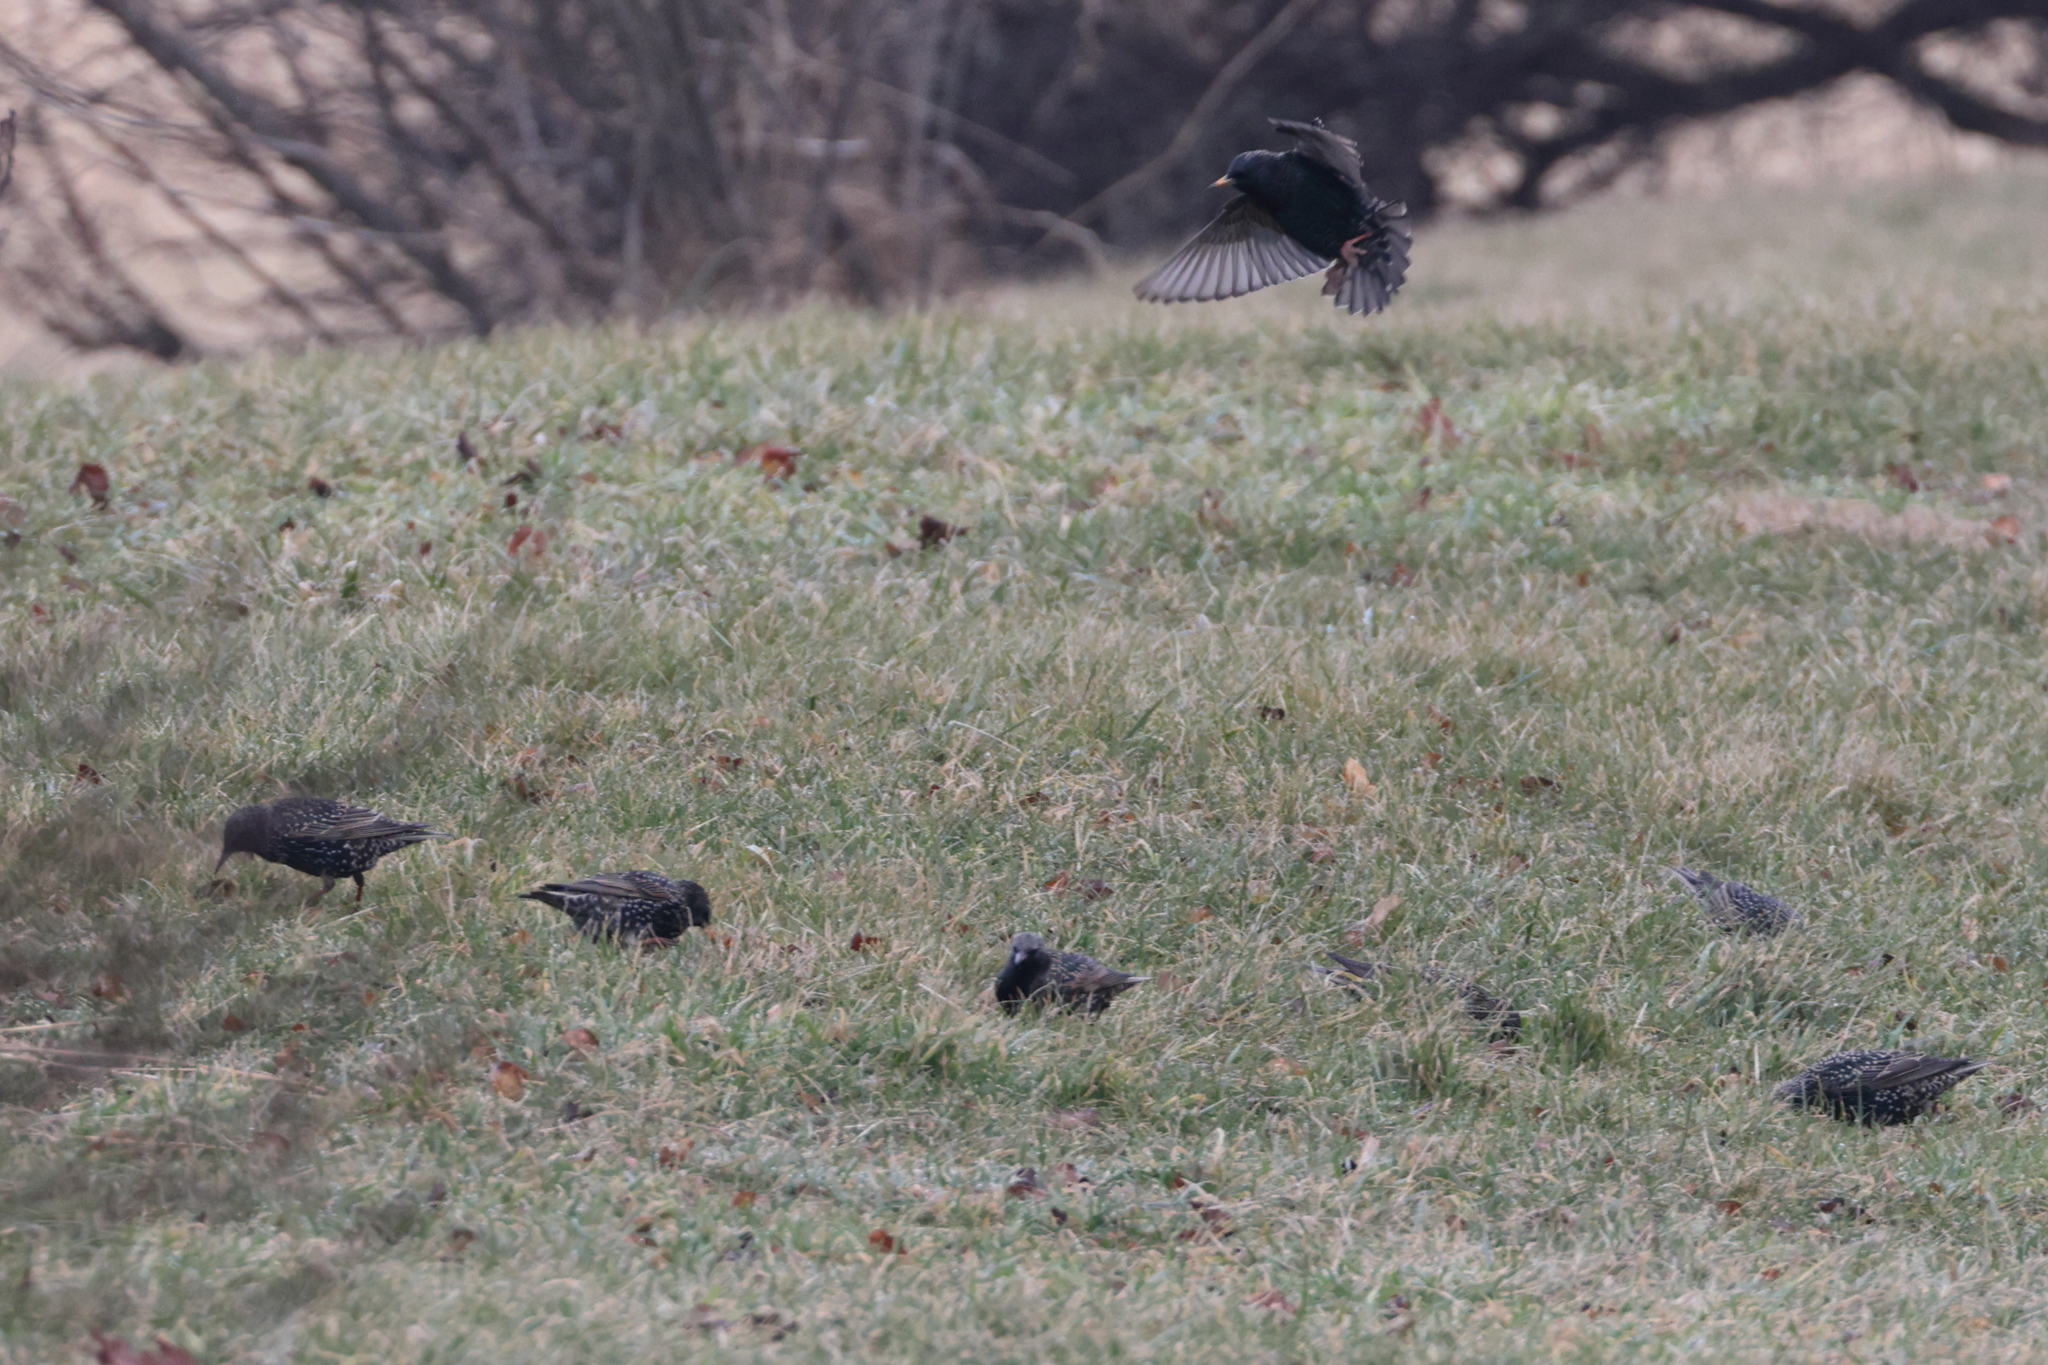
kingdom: Animalia
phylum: Chordata
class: Aves
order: Passeriformes
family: Sturnidae
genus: Sturnus
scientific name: Sturnus vulgaris
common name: Common starling
